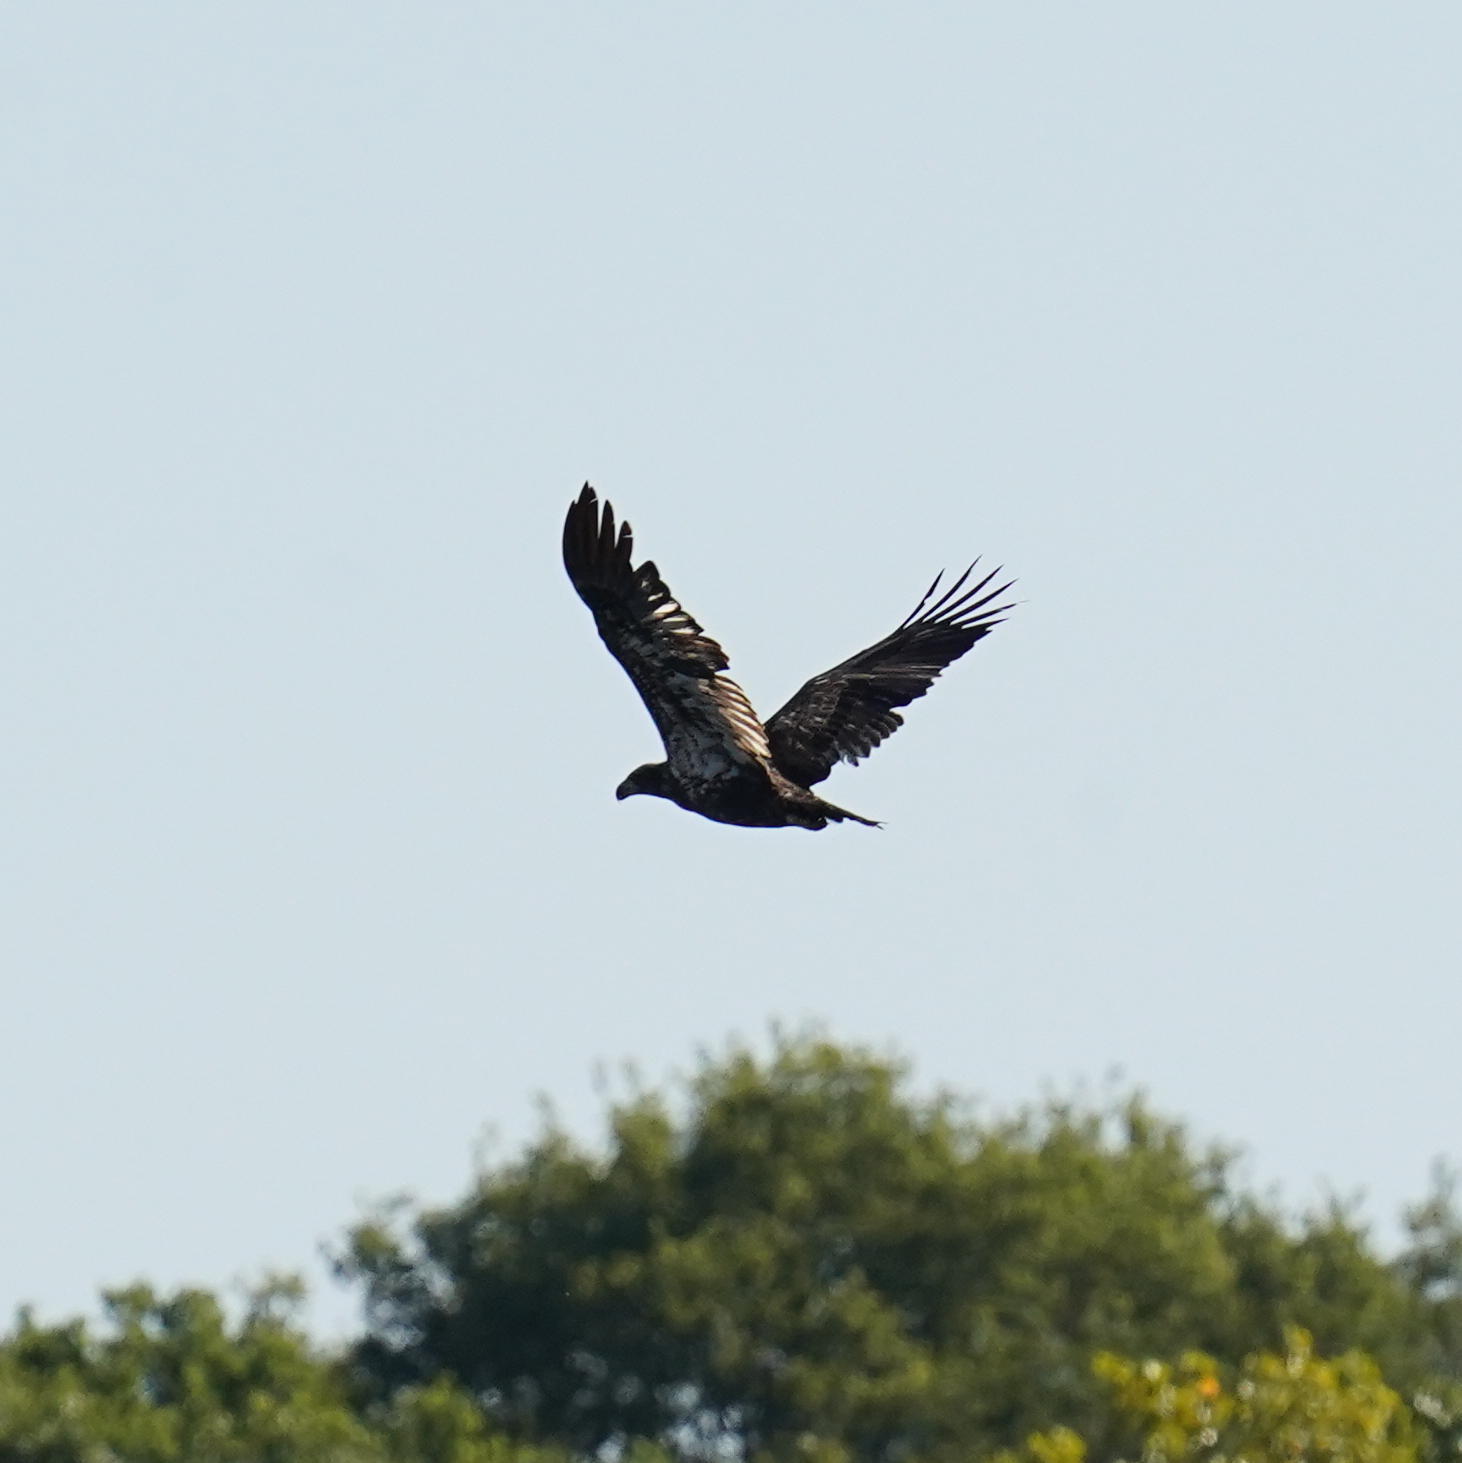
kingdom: Animalia
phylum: Chordata
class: Aves
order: Accipitriformes
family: Accipitridae
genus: Haliaeetus
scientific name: Haliaeetus leucocephalus
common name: Bald eagle
